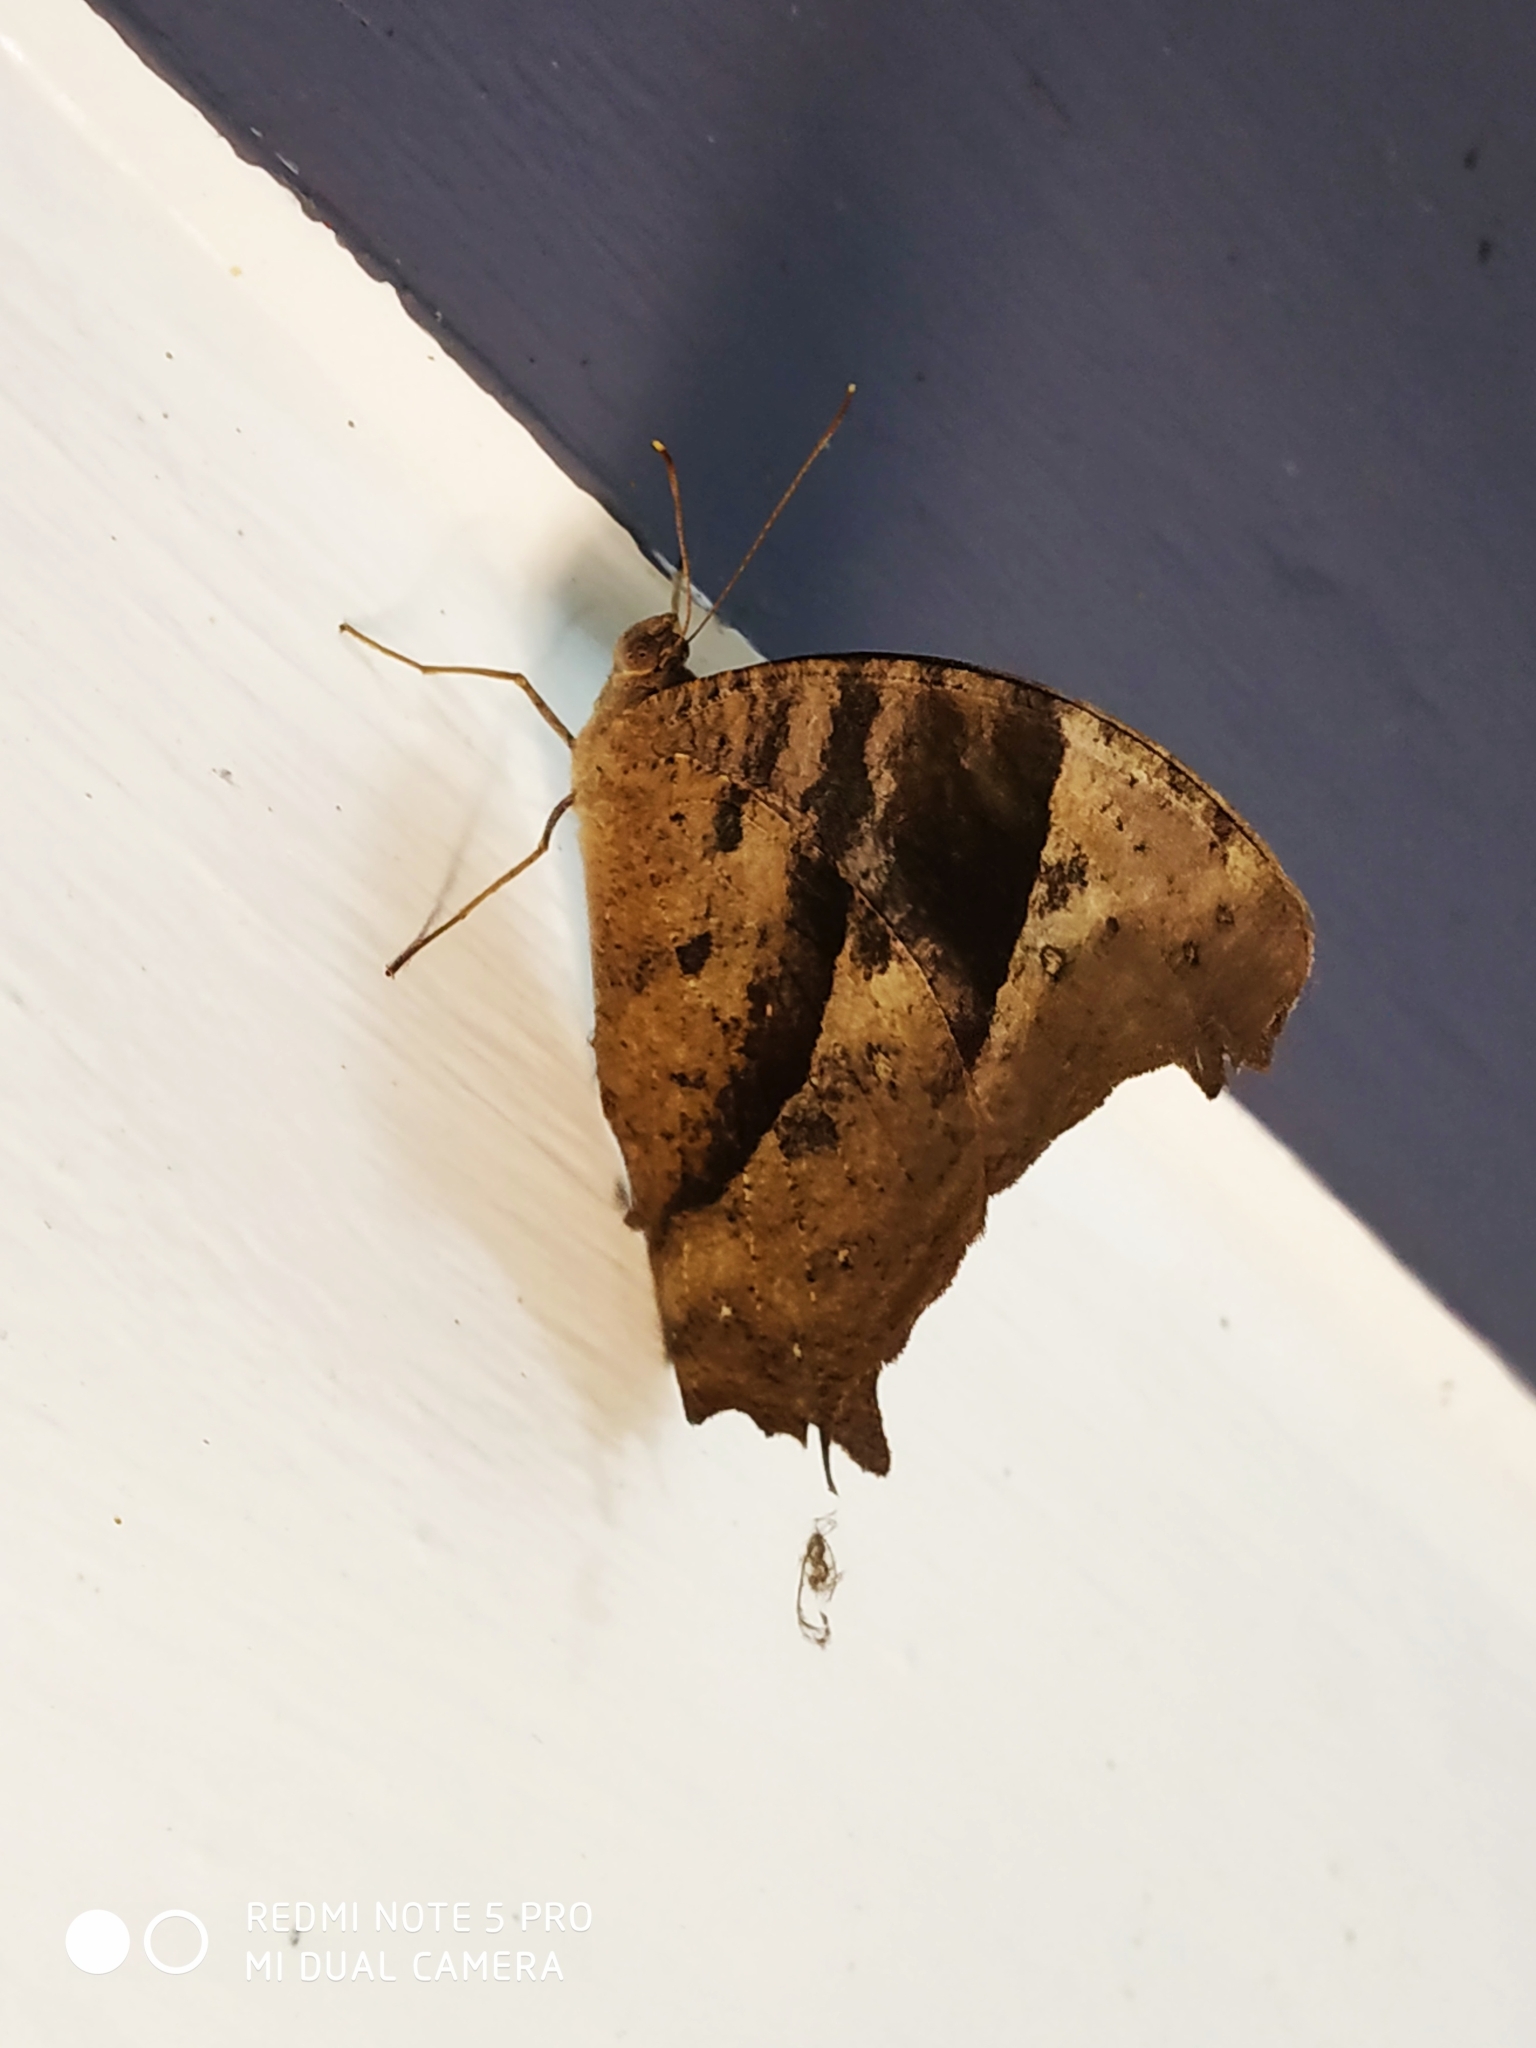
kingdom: Animalia
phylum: Arthropoda
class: Insecta
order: Lepidoptera
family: Nymphalidae
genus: Melanitis
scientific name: Melanitis leda
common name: Twilight brown
